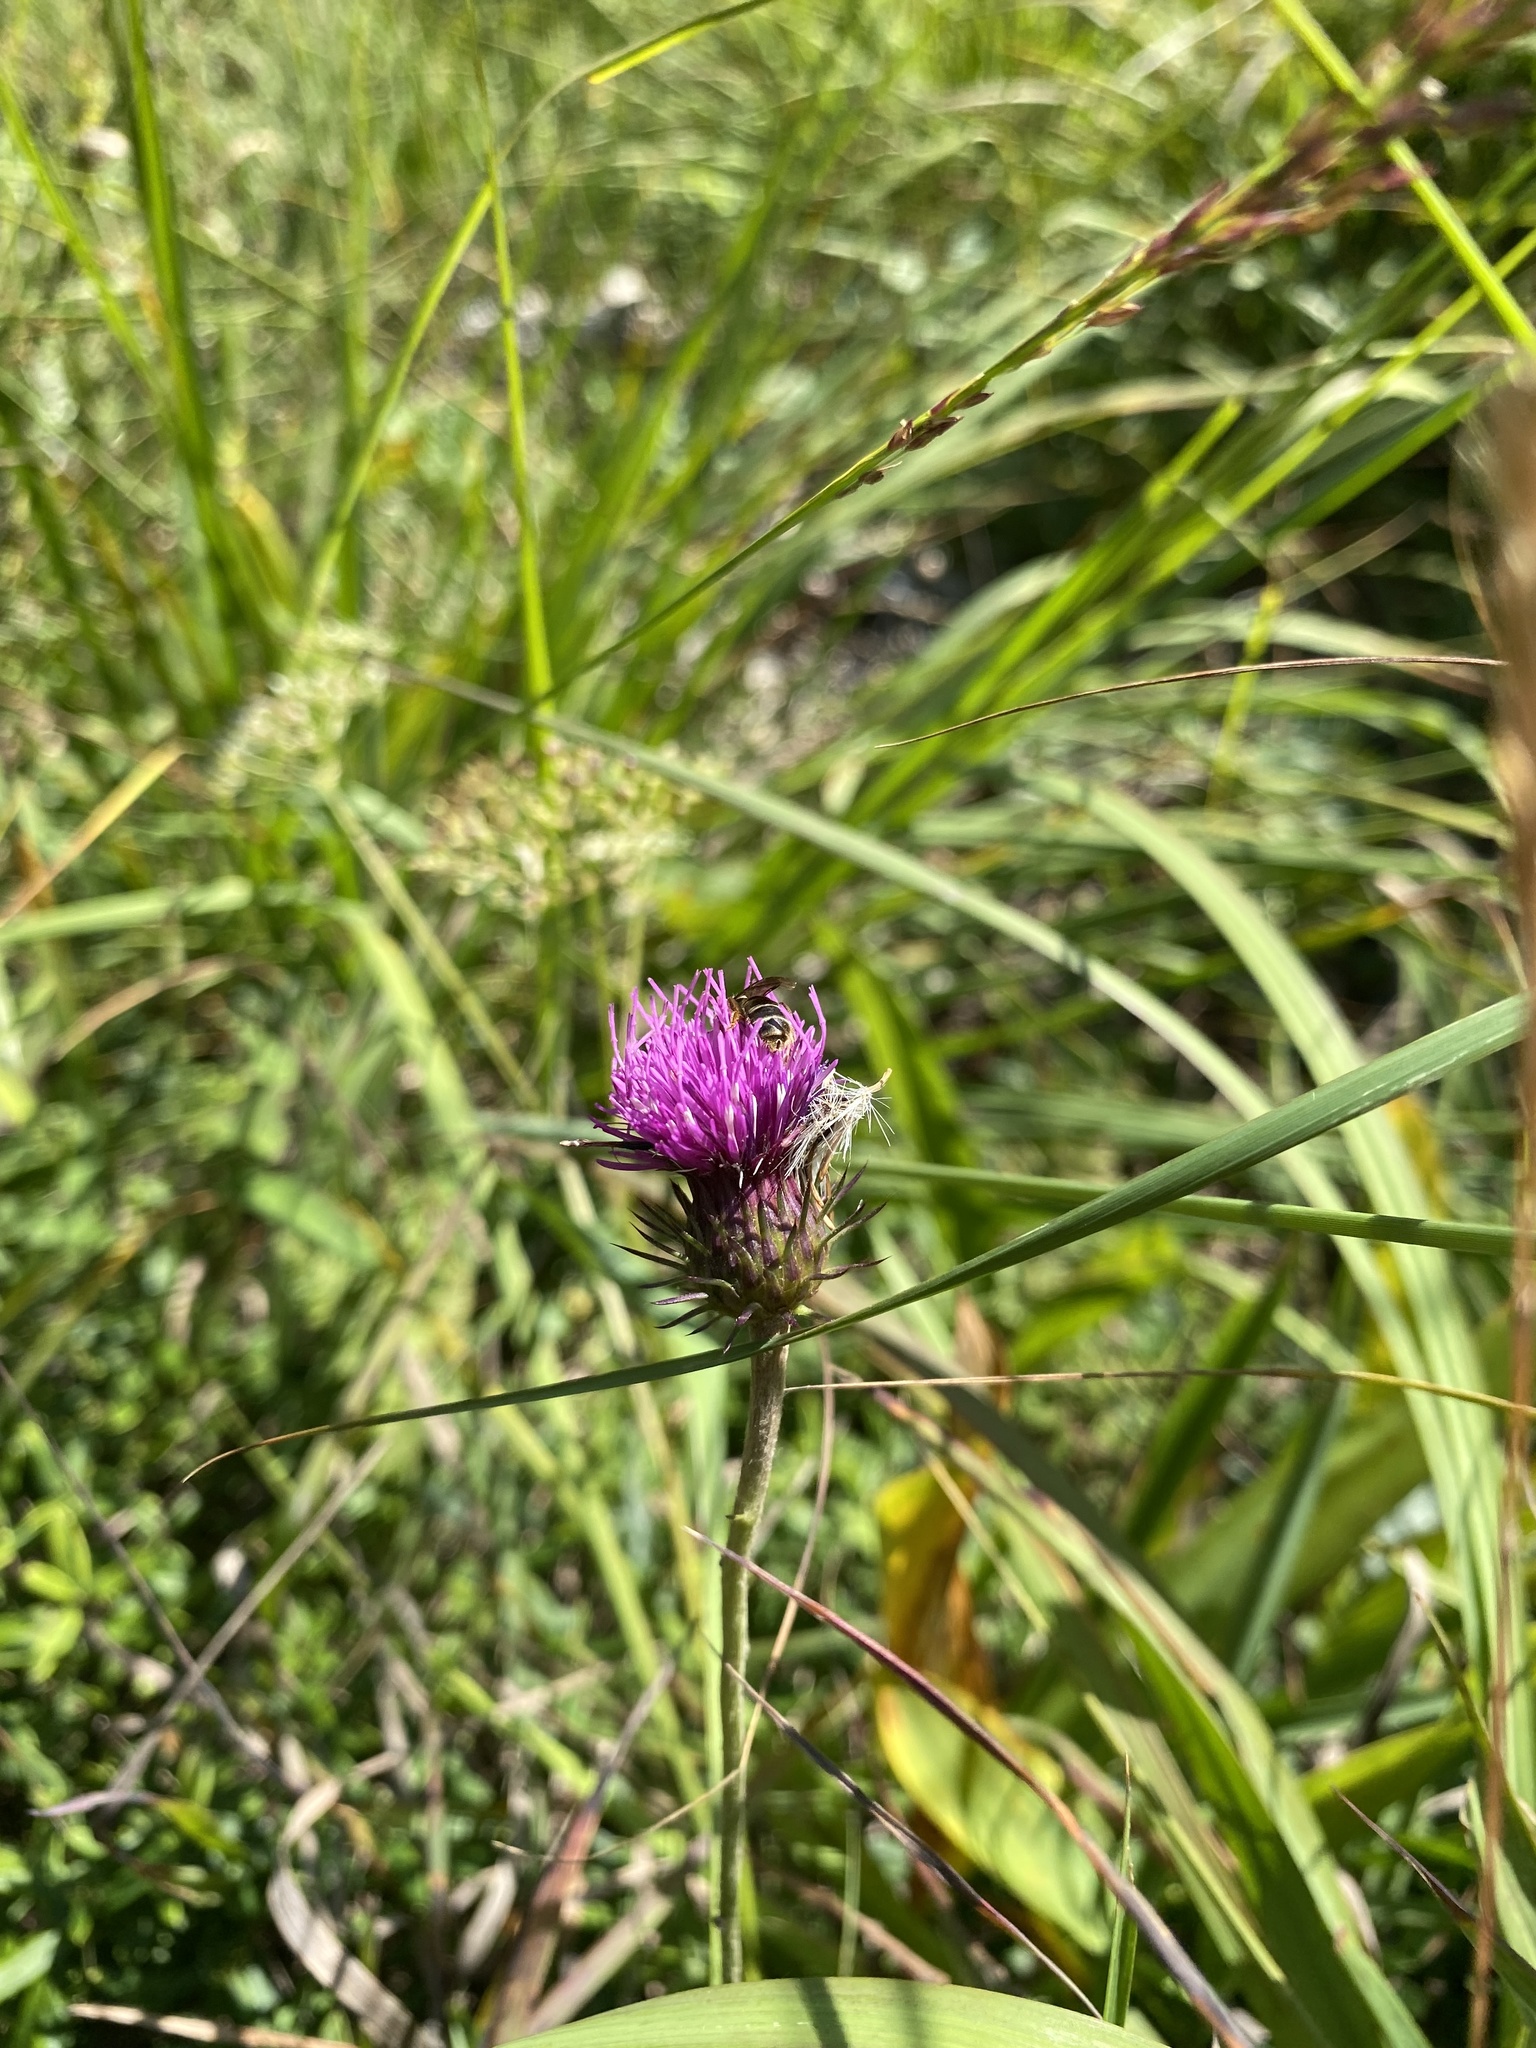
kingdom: Plantae
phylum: Tracheophyta
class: Magnoliopsida
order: Asterales
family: Asteraceae
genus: Carduus
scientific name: Carduus defloratus
